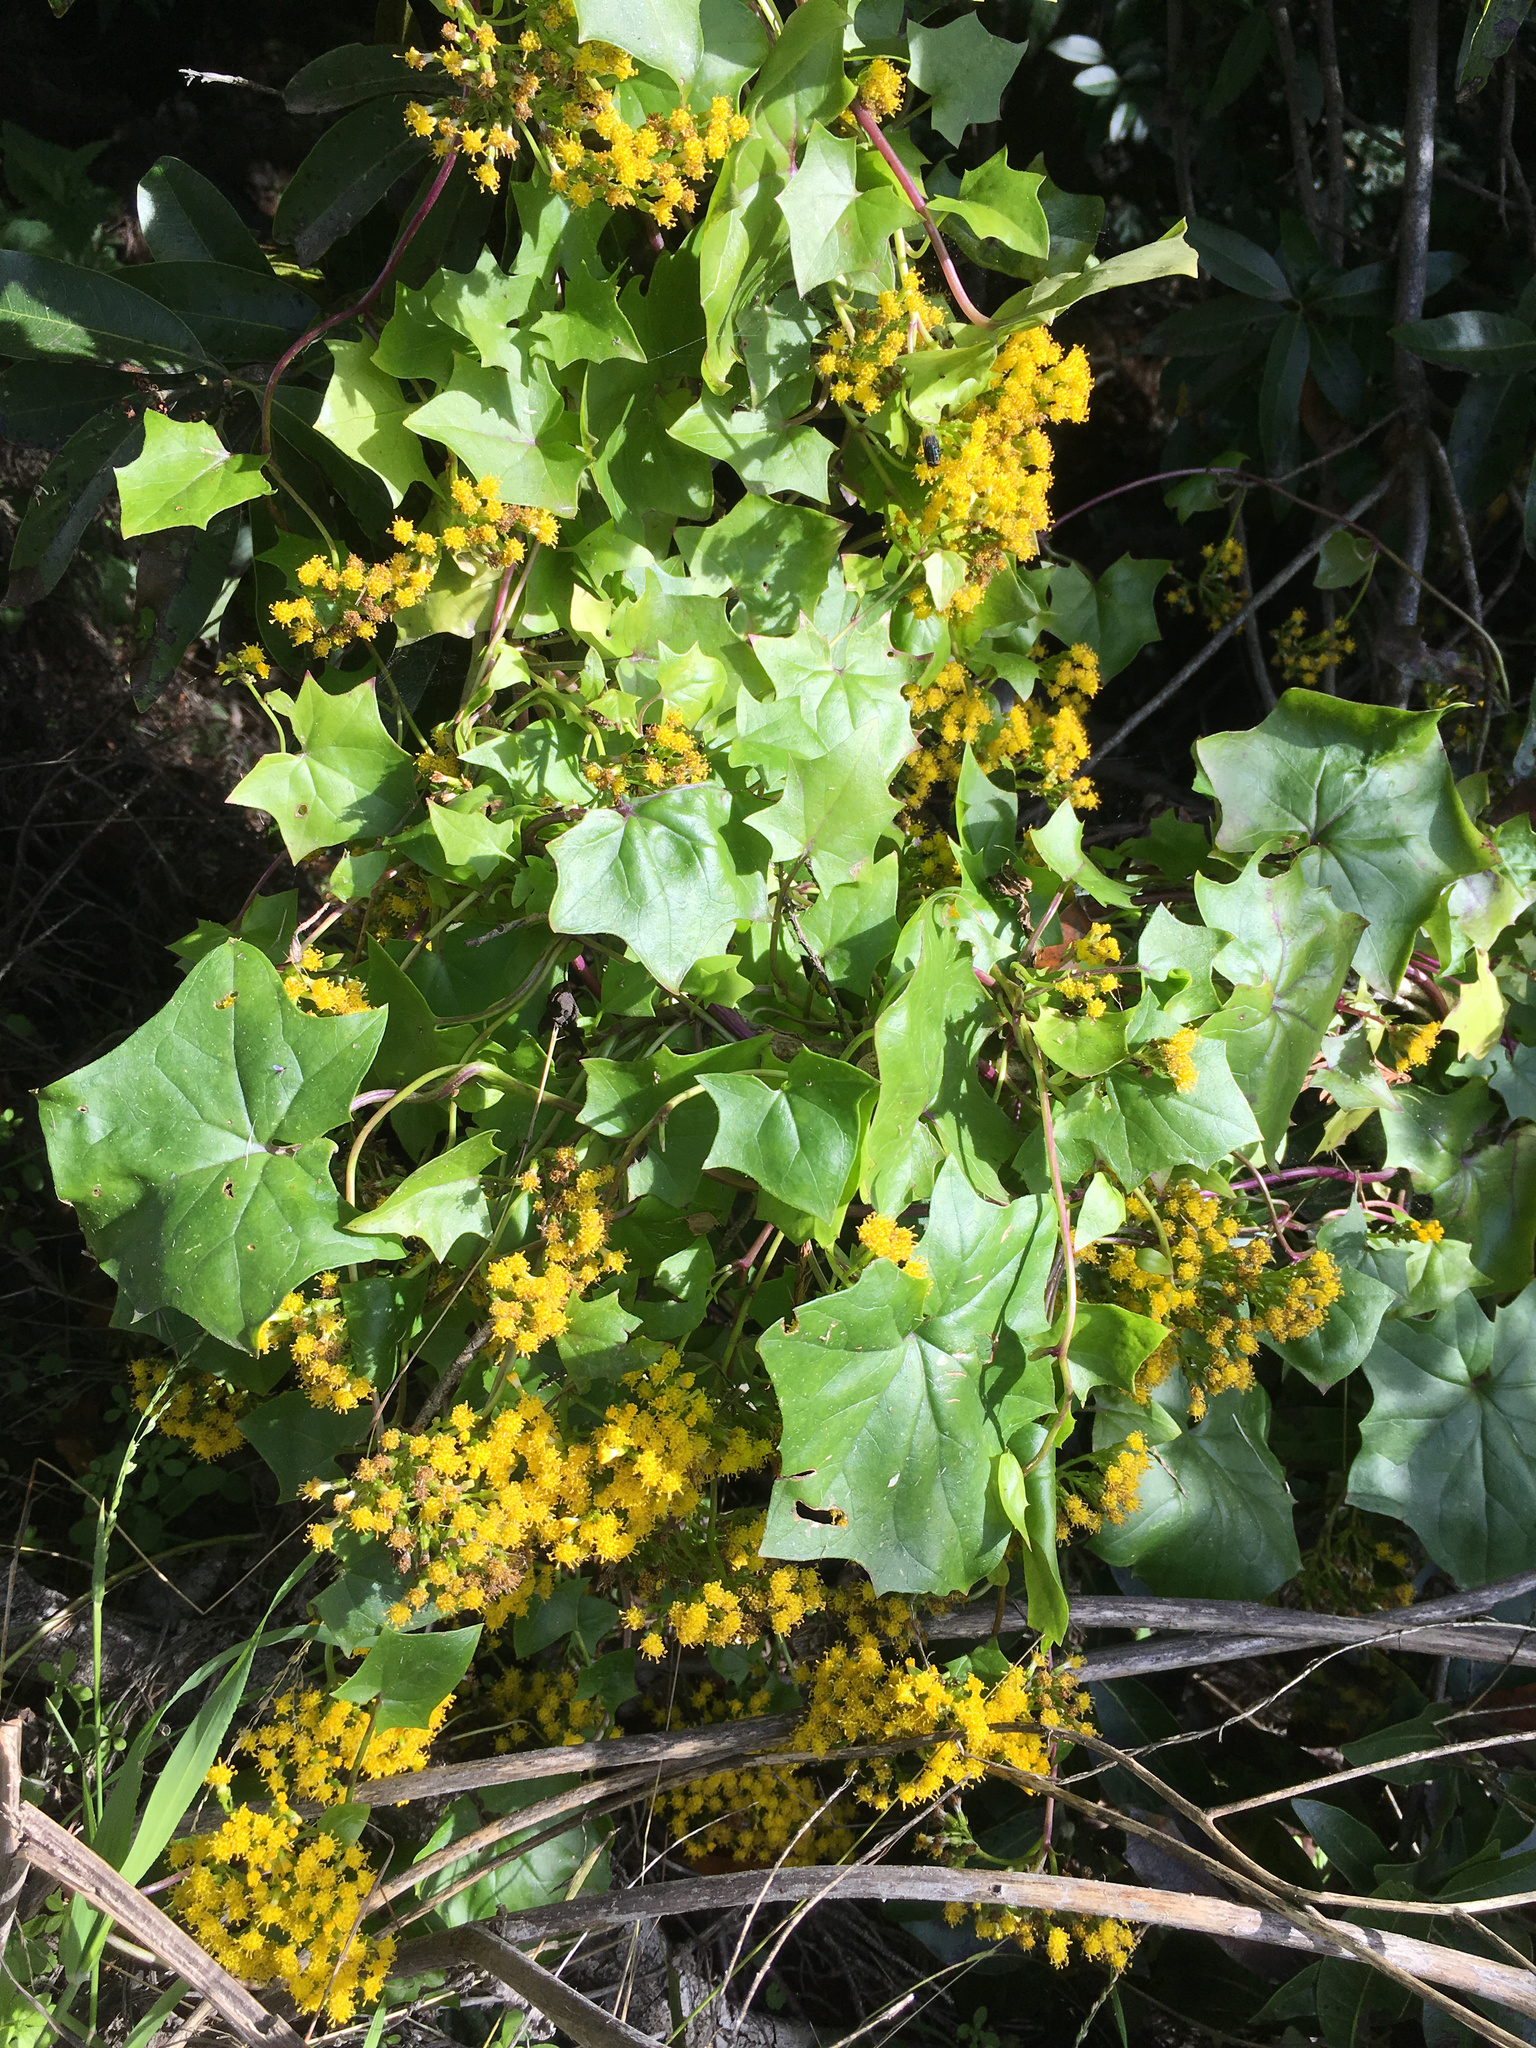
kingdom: Plantae
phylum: Tracheophyta
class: Magnoliopsida
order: Asterales
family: Asteraceae
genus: Delairea
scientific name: Delairea odorata
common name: Cape-ivy
